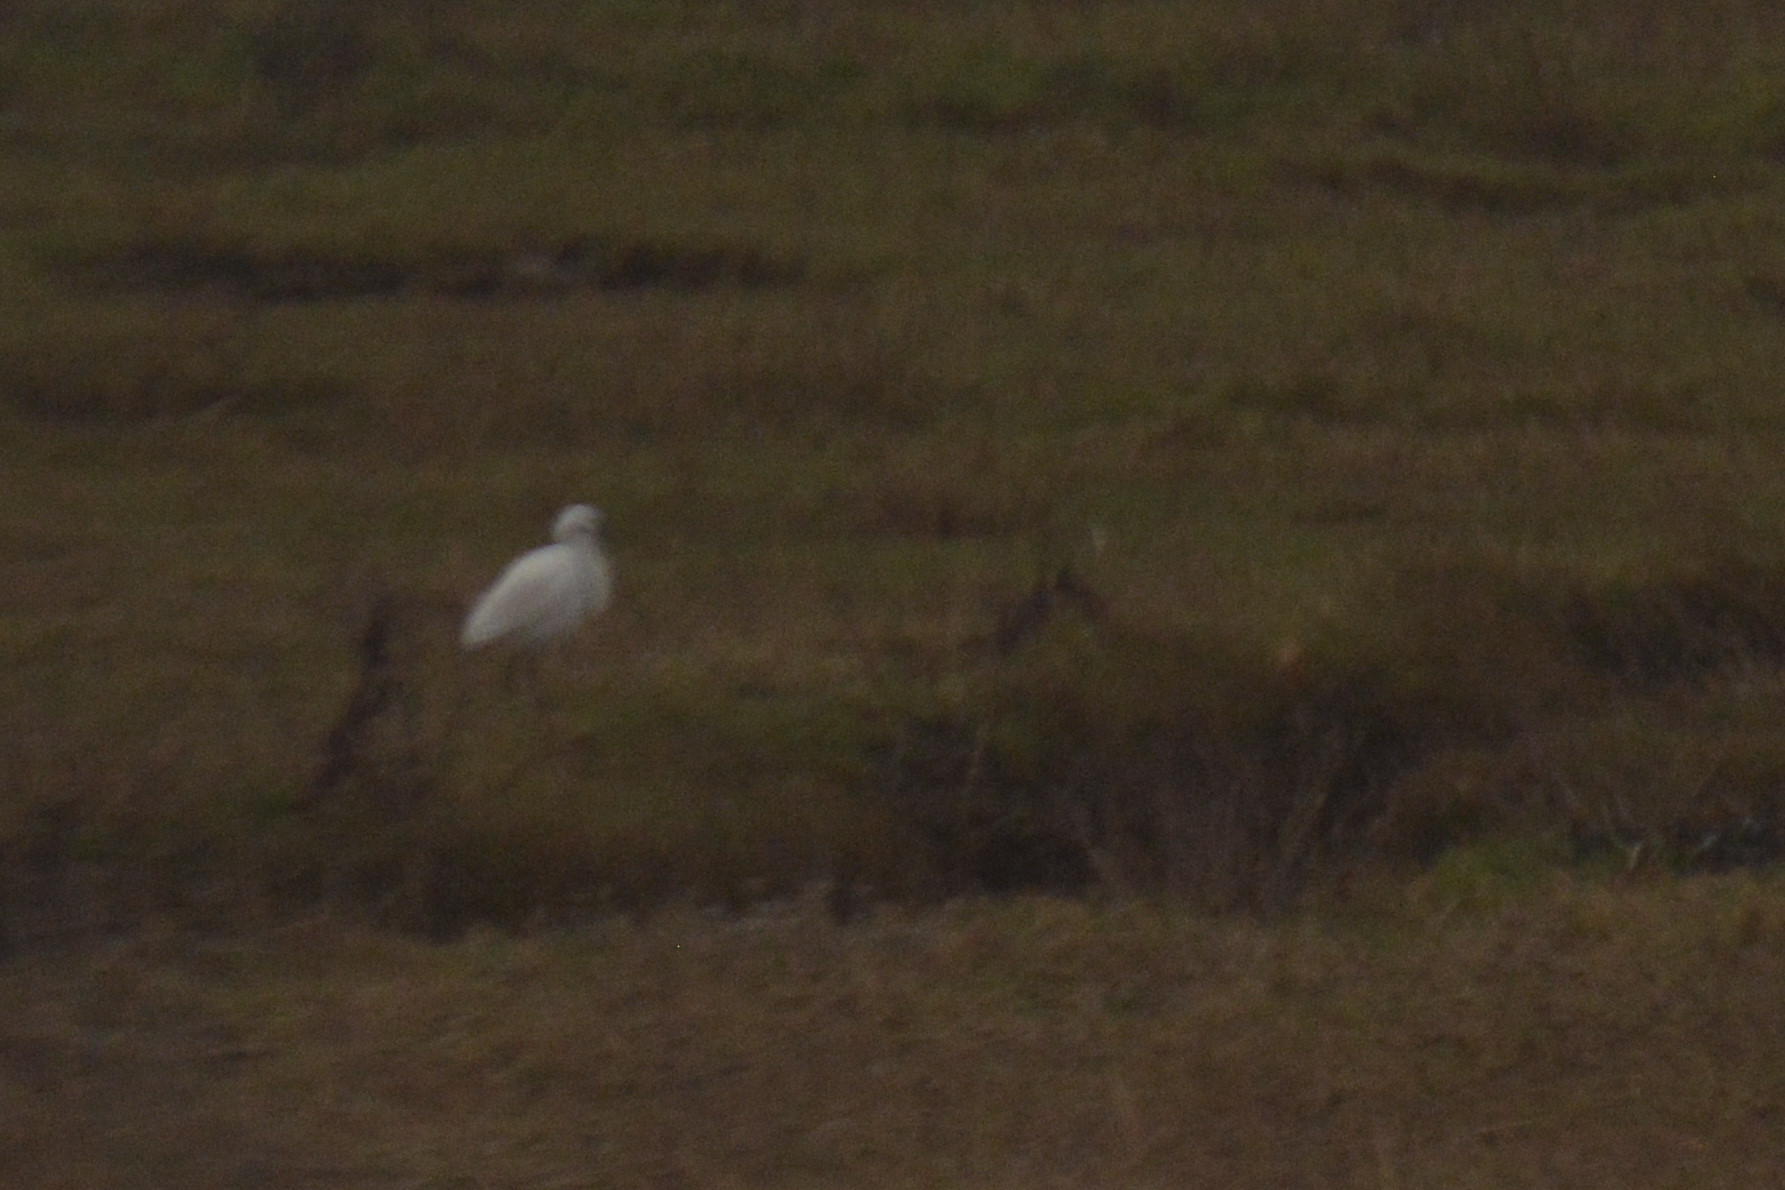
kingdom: Animalia
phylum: Chordata
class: Aves
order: Pelecaniformes
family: Ardeidae
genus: Egretta
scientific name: Egretta garzetta
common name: Little egret
